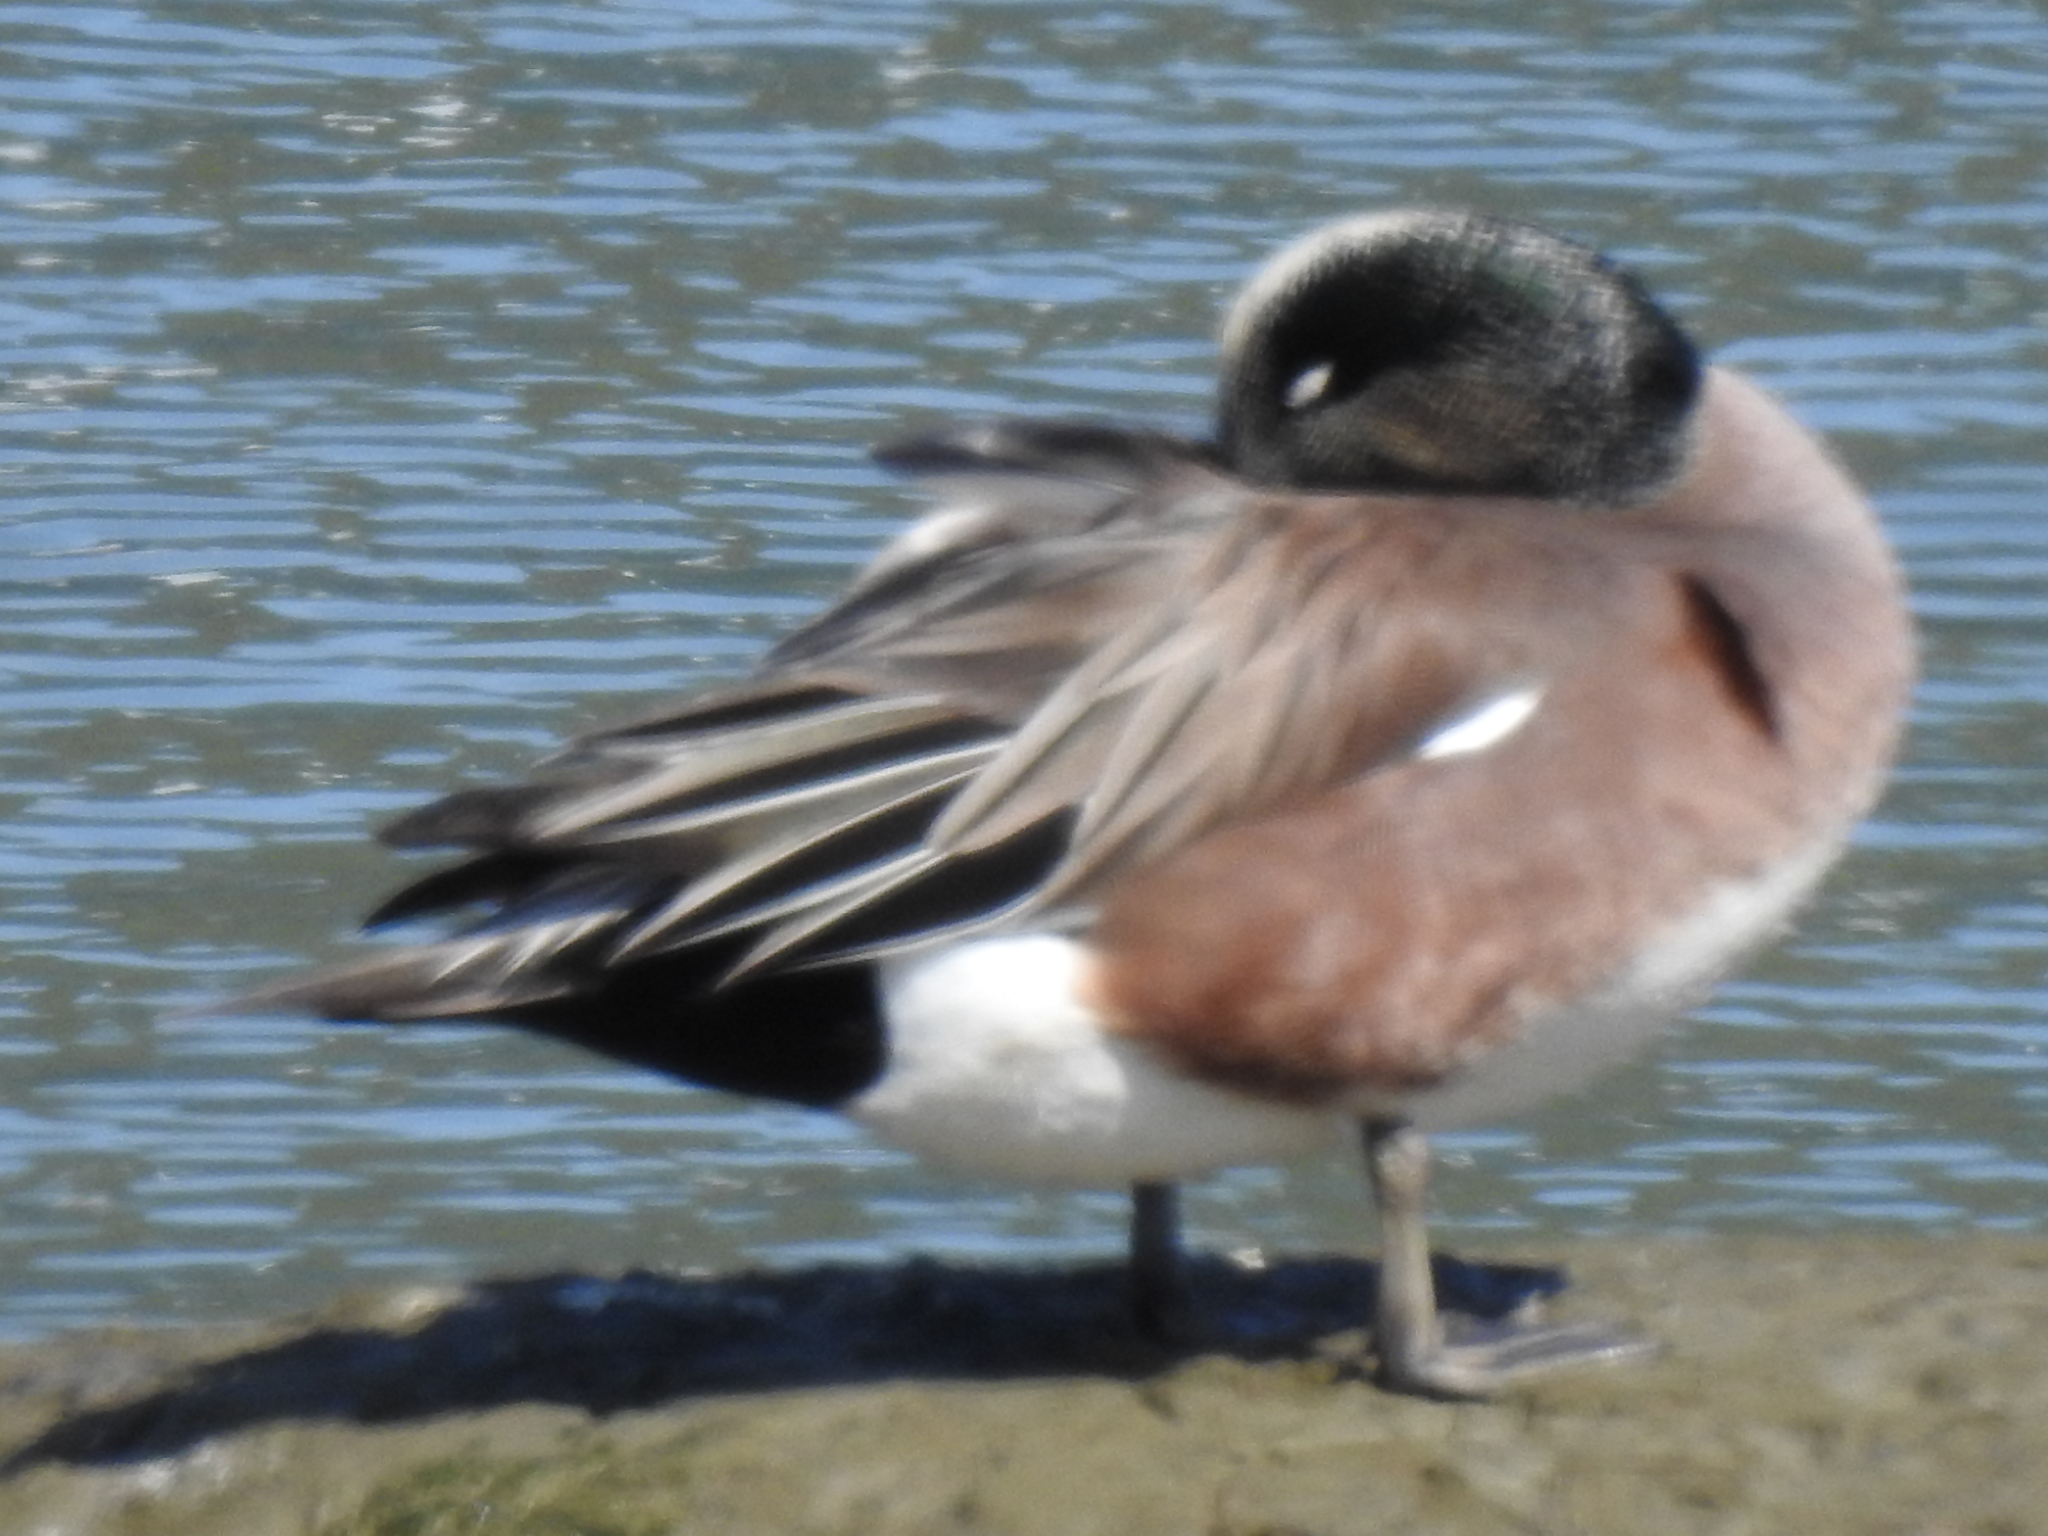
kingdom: Animalia
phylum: Chordata
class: Aves
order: Anseriformes
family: Anatidae
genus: Mareca
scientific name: Mareca americana
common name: American wigeon
